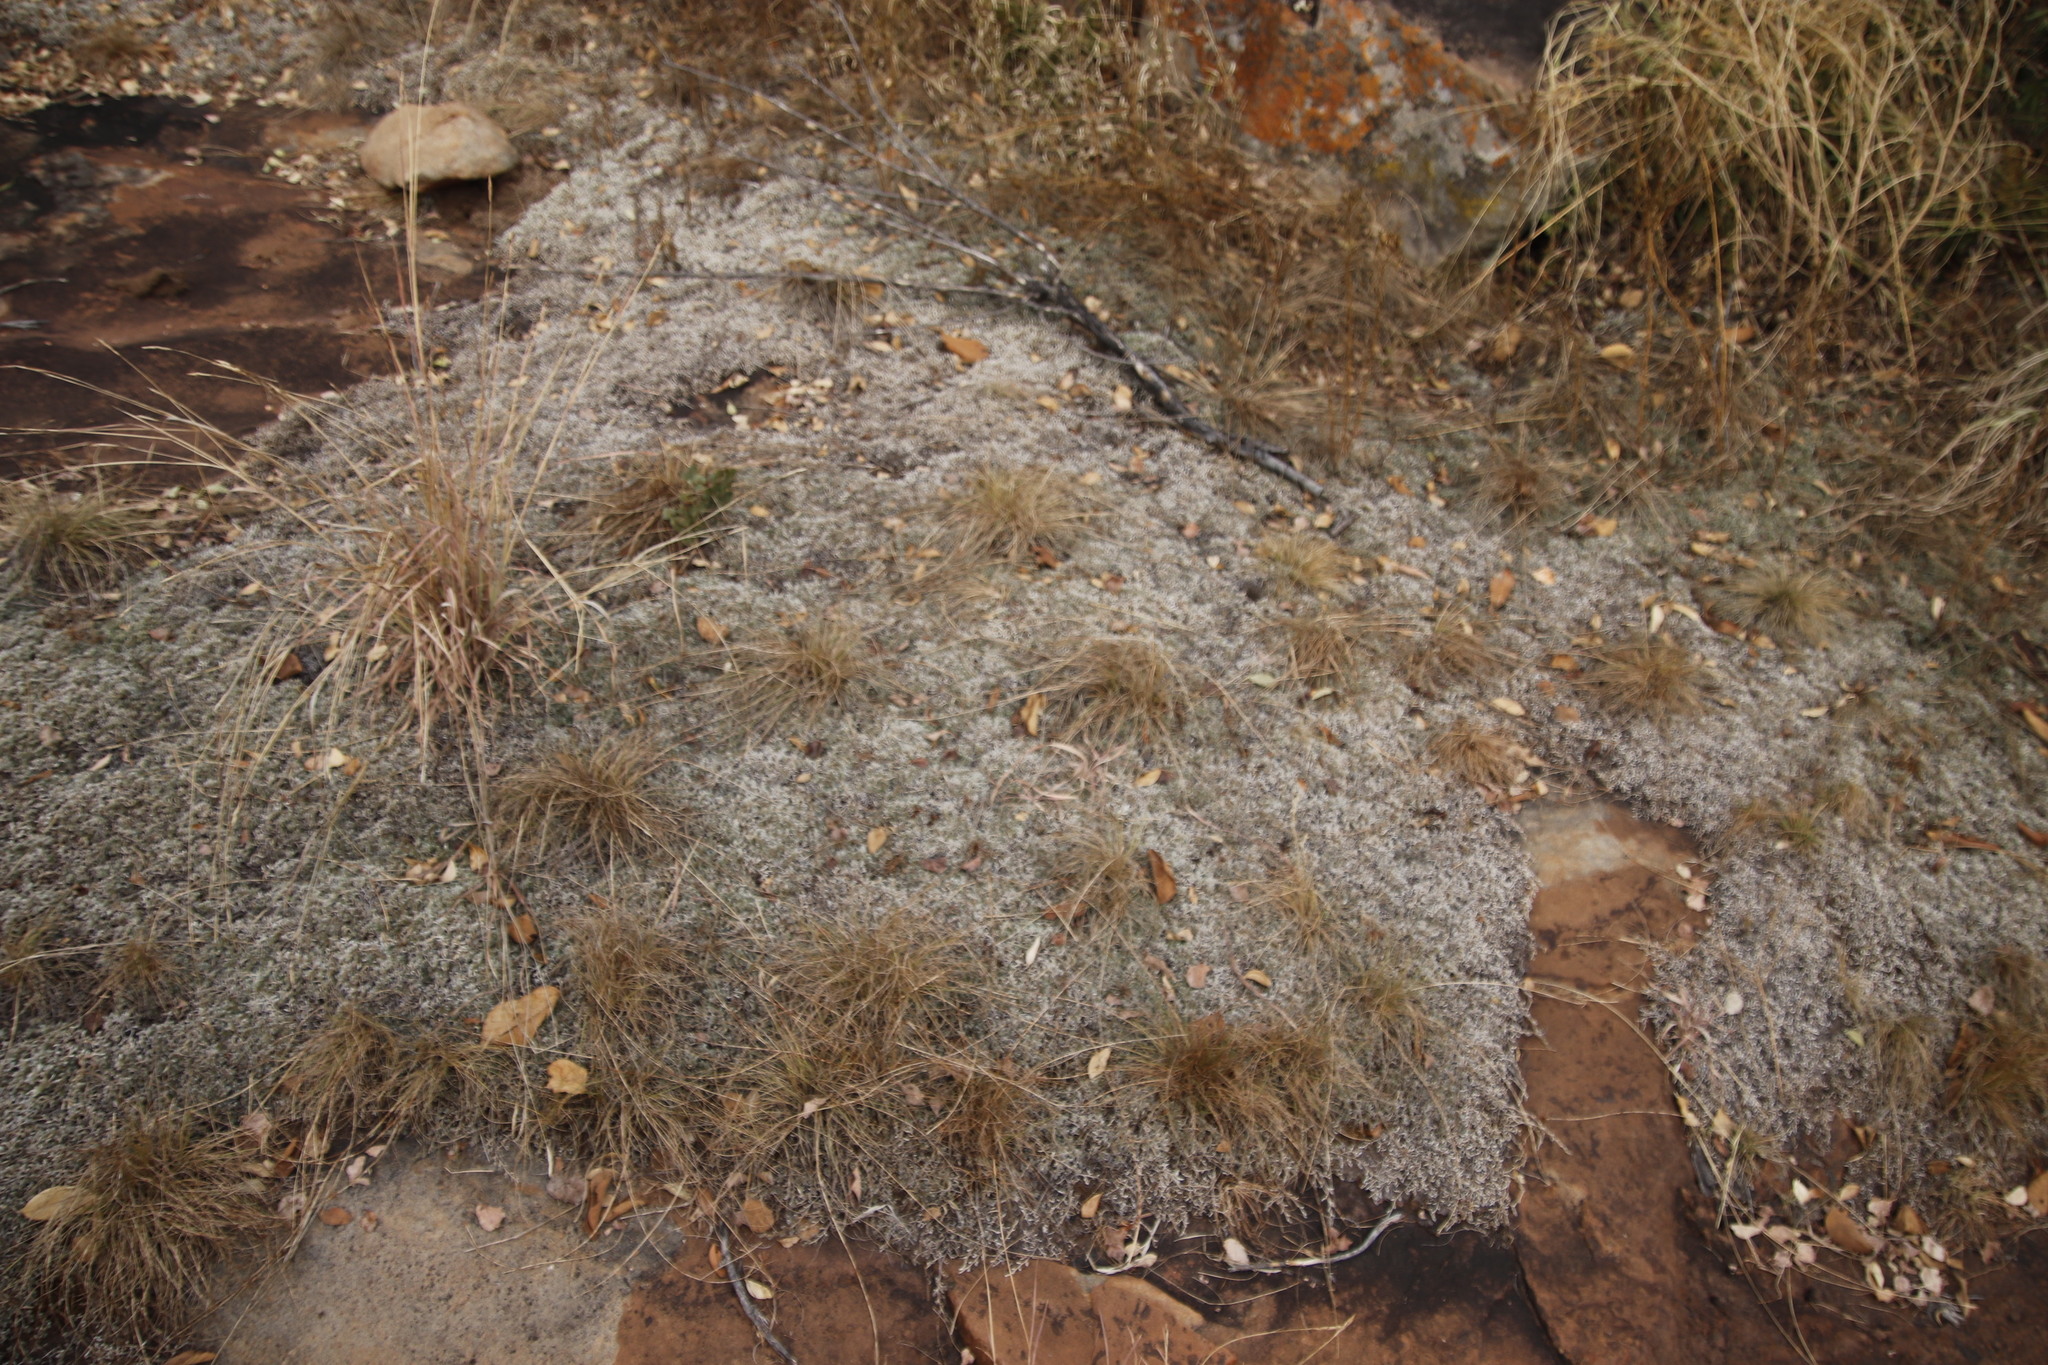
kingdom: Plantae
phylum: Tracheophyta
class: Lycopodiopsida
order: Selaginellales
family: Selaginellaceae
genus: Selaginella
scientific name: Selaginella dregei
